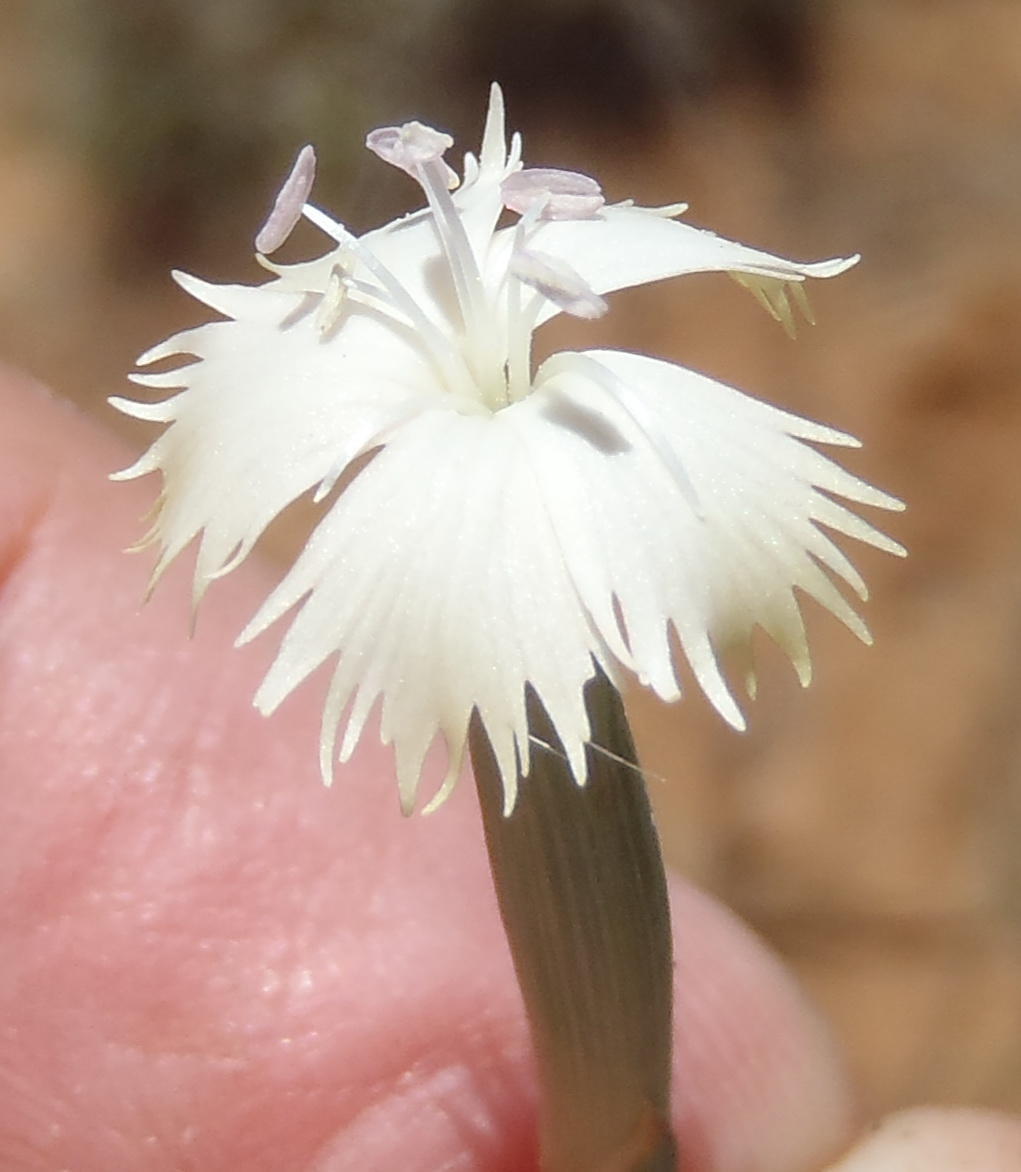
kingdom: Plantae
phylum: Tracheophyta
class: Magnoliopsida
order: Caryophyllales
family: Caryophyllaceae
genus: Dianthus
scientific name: Dianthus micropetalus
